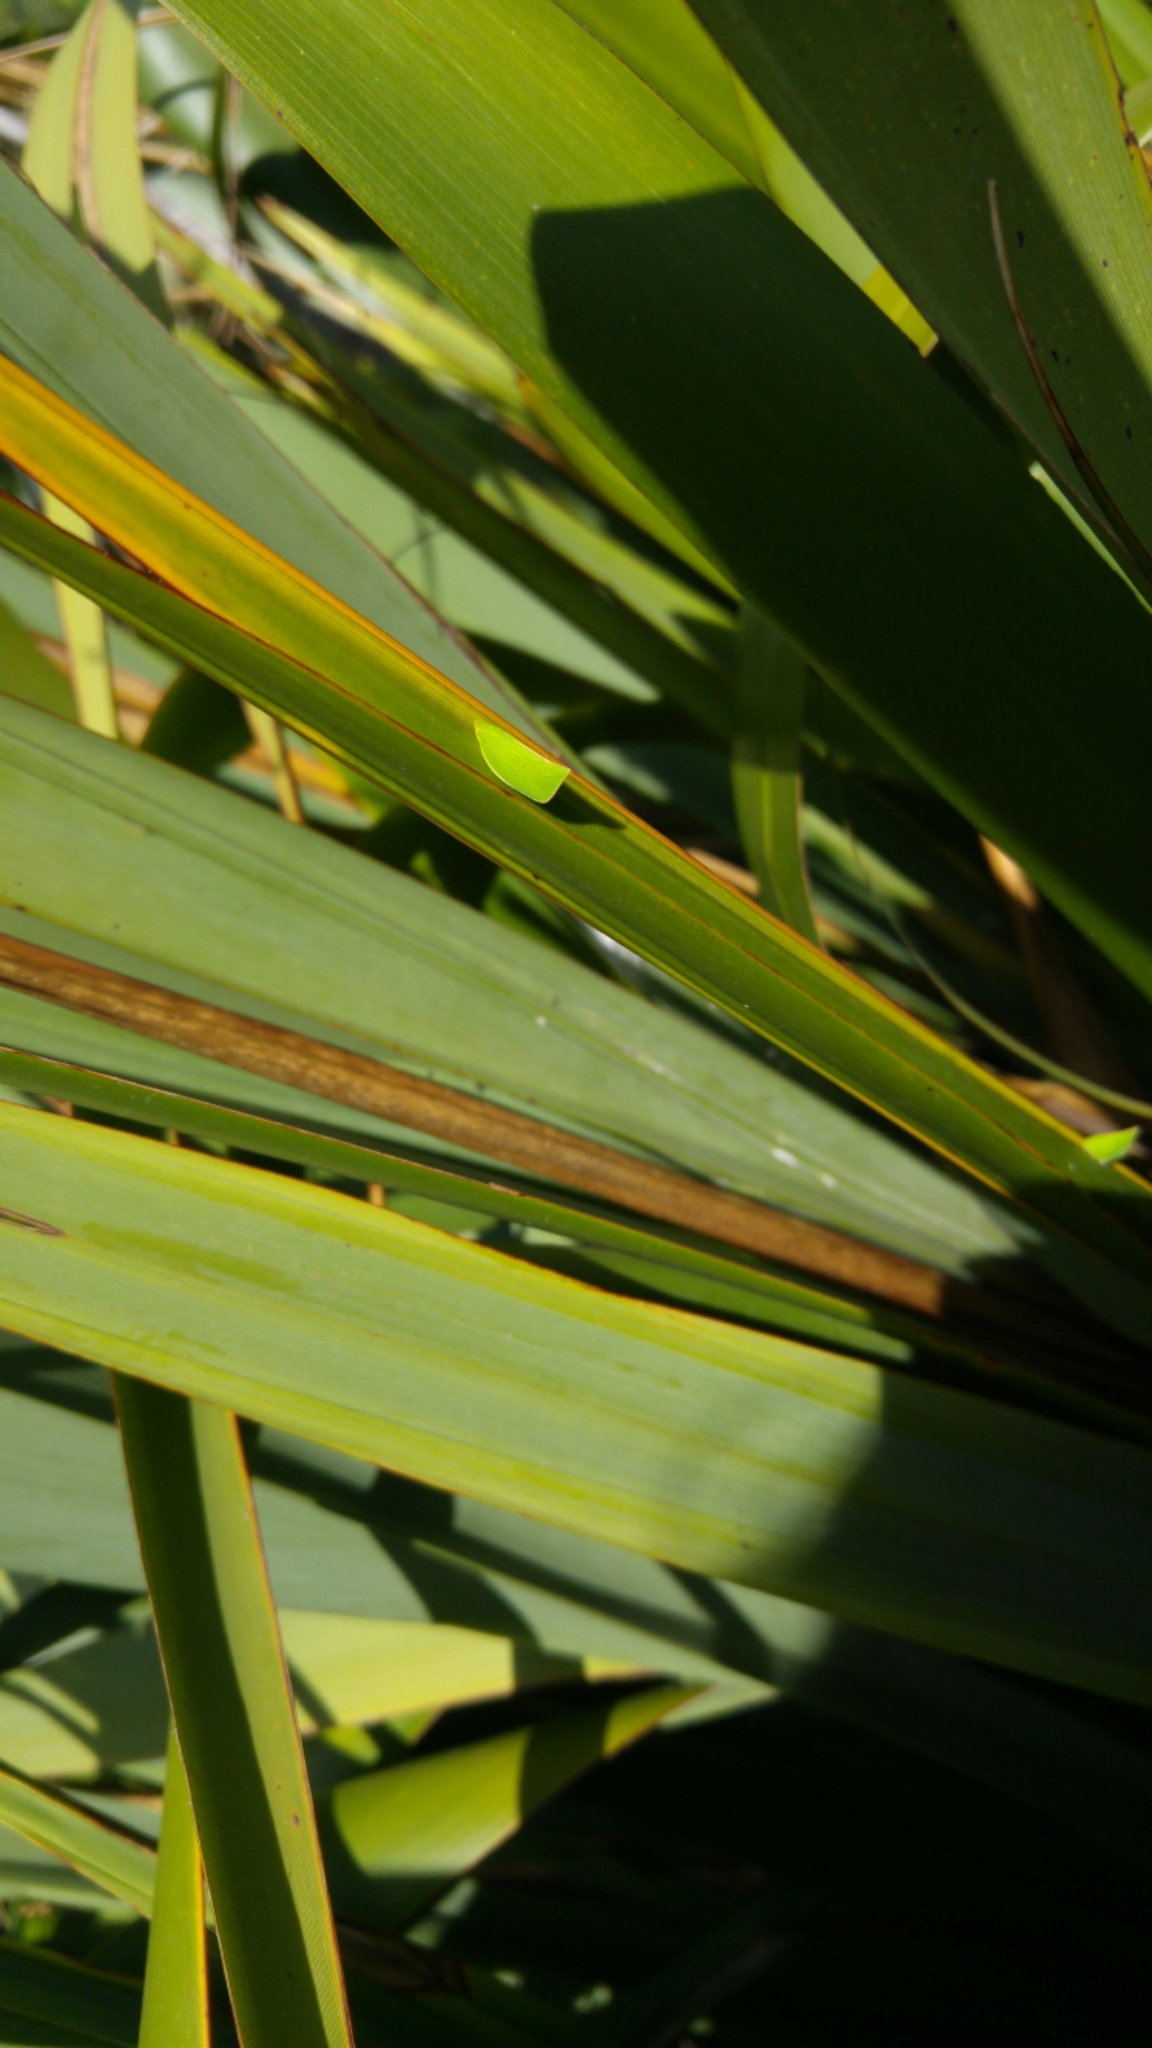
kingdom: Animalia
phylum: Arthropoda
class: Insecta
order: Hemiptera
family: Flatidae
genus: Siphanta
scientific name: Siphanta acuta
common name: Torpedo bug
